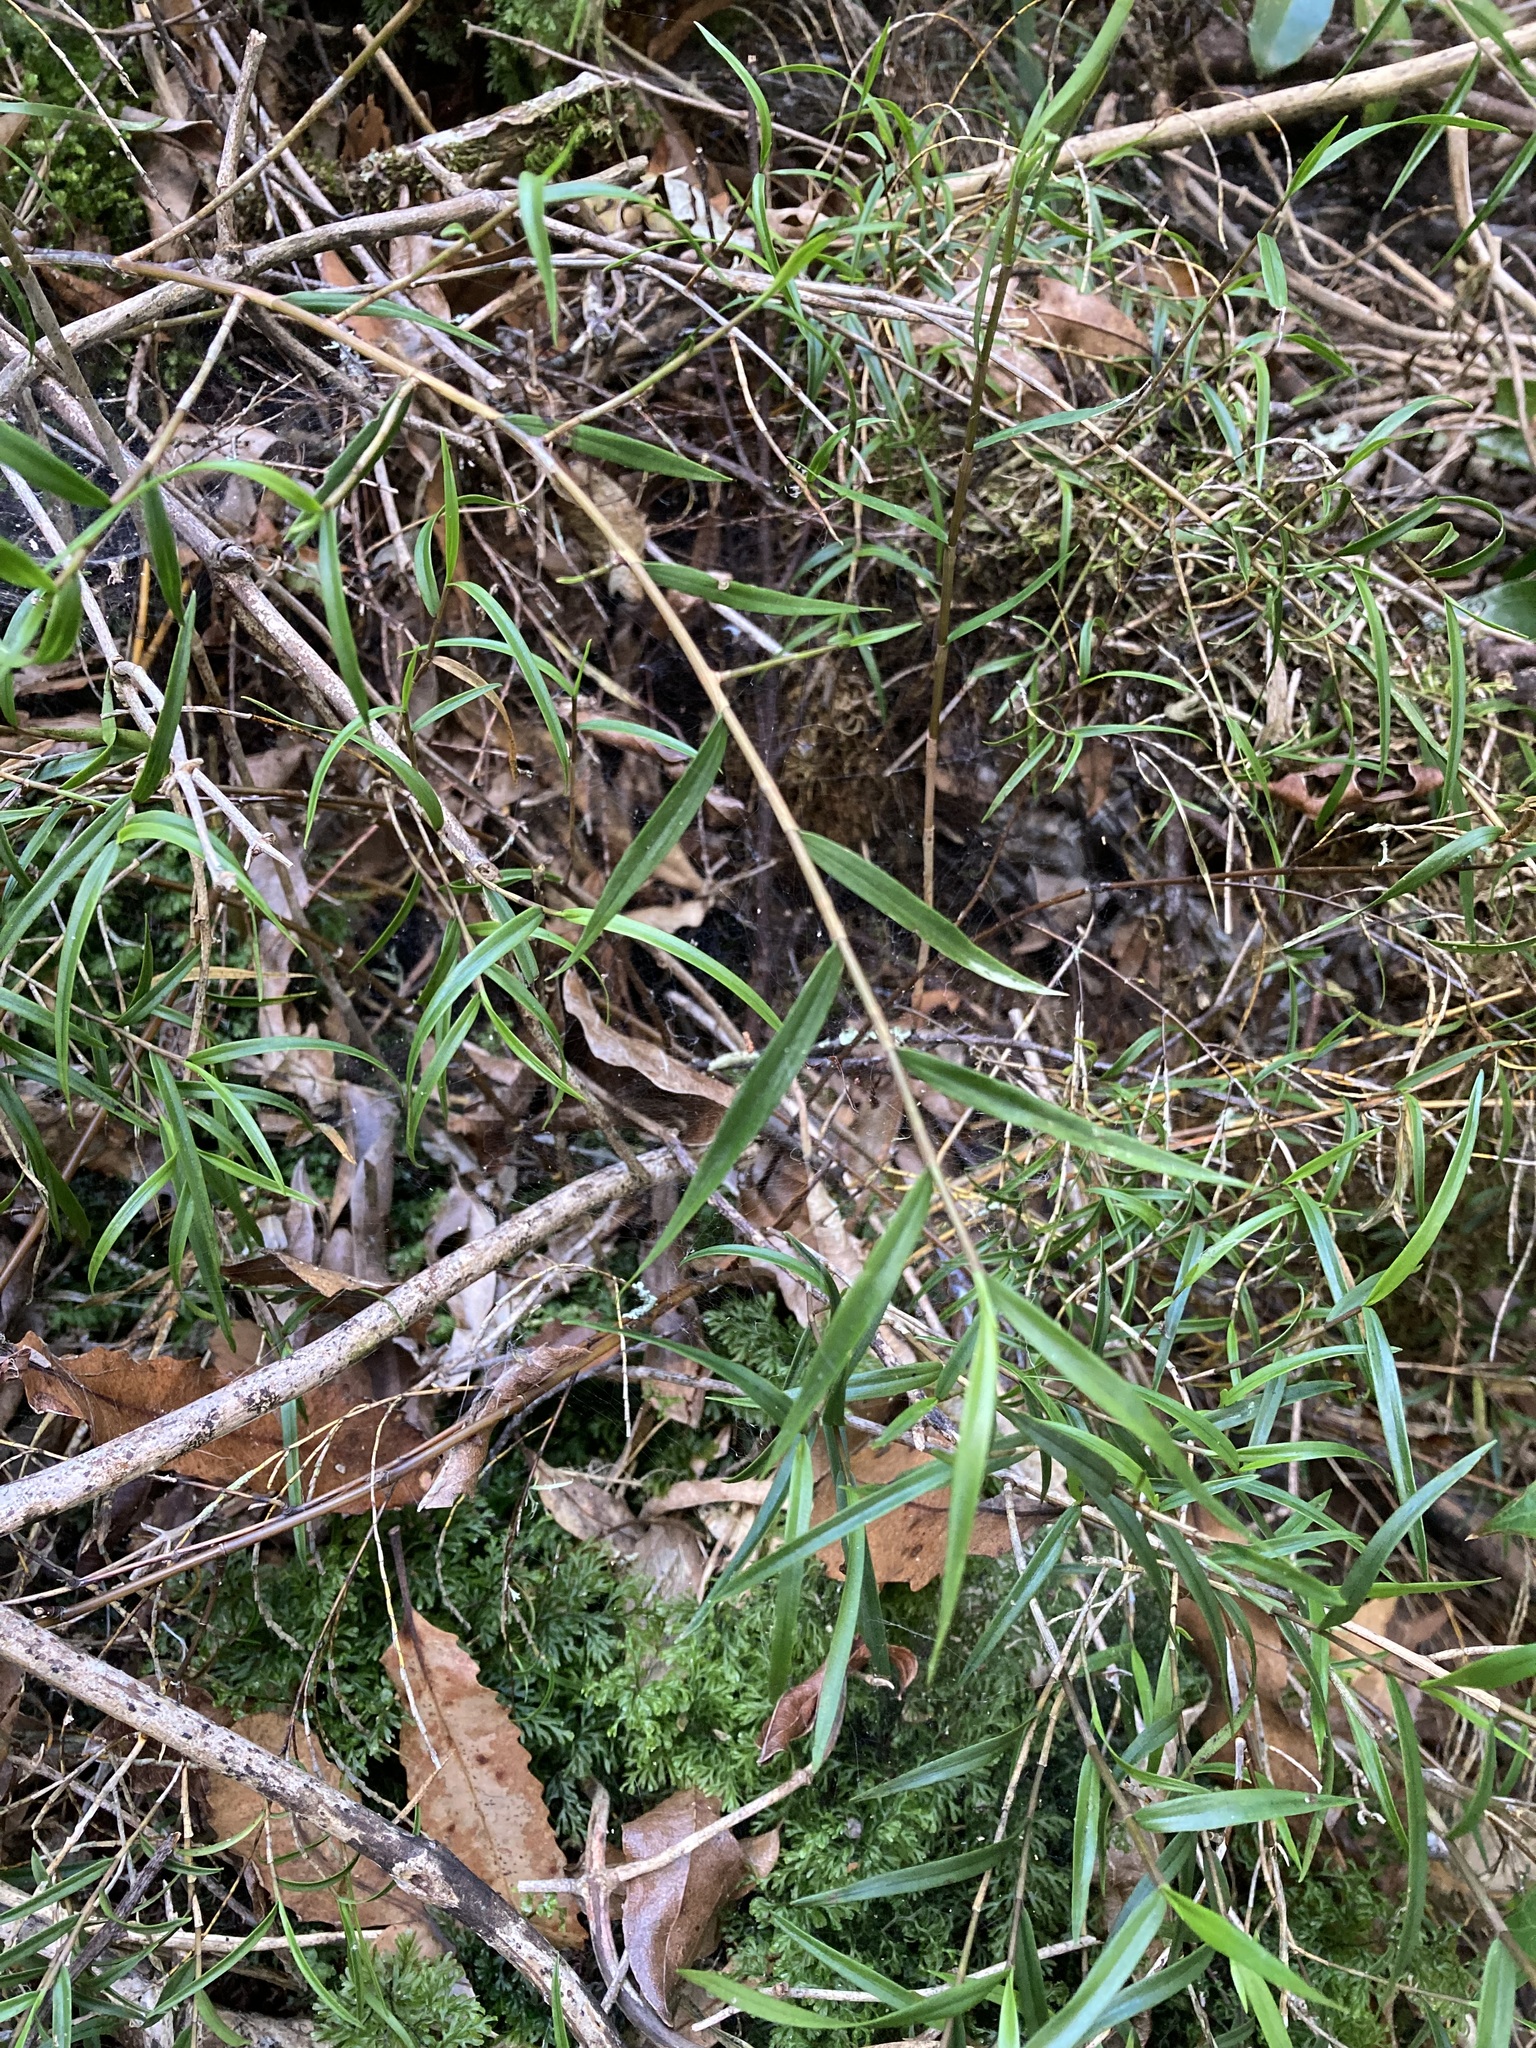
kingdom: Plantae
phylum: Tracheophyta
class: Liliopsida
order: Asparagales
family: Orchidaceae
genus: Dendrobium
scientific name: Dendrobium cunninghamii
